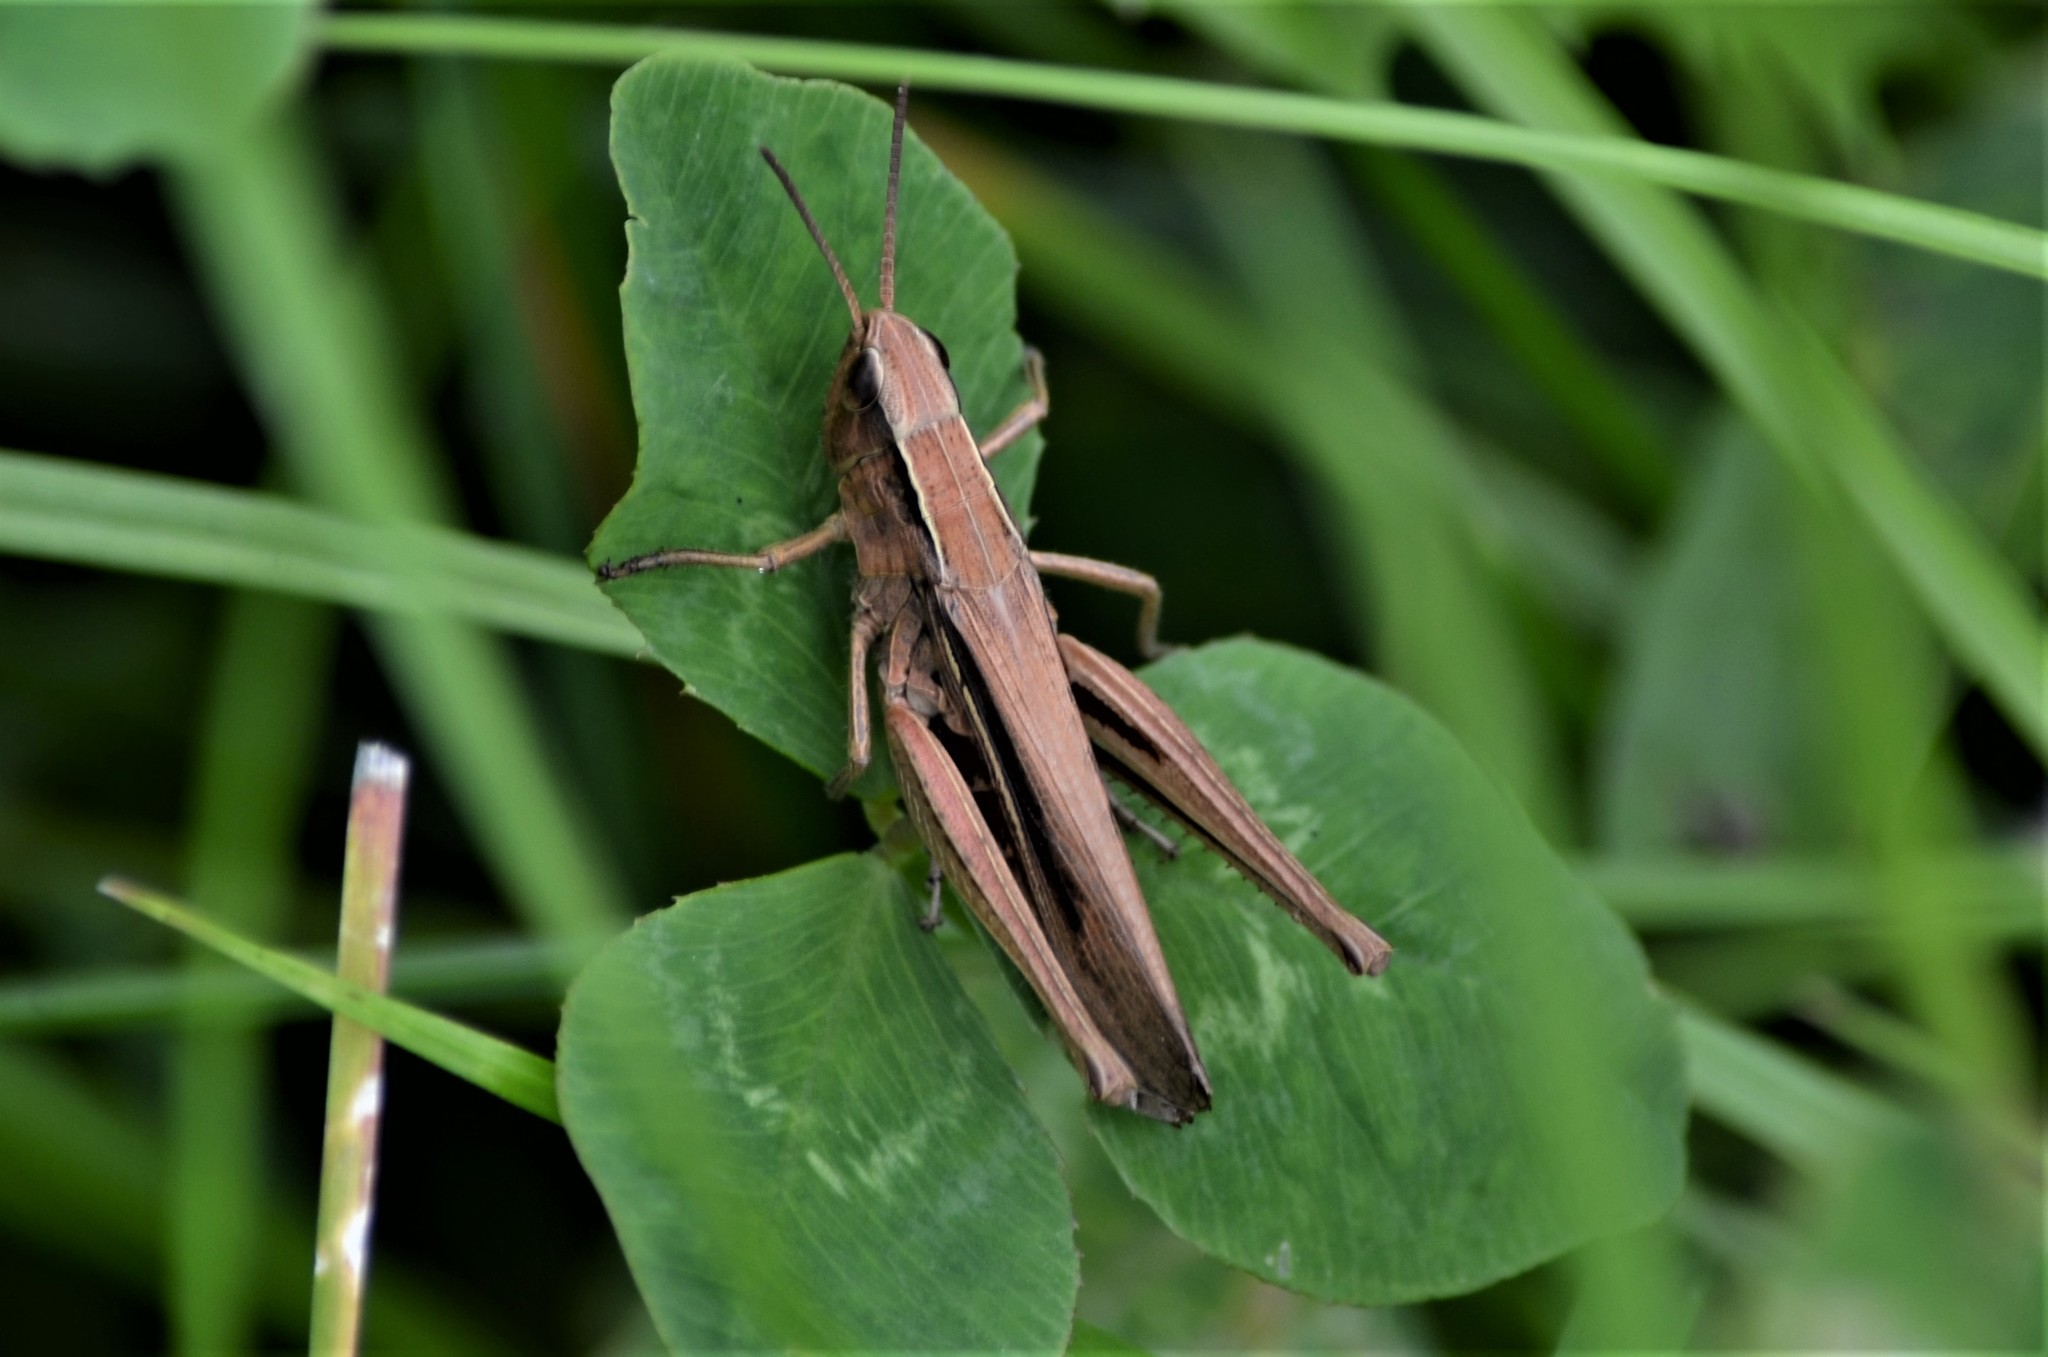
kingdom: Animalia
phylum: Arthropoda
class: Insecta
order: Orthoptera
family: Acrididae
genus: Chorthippus
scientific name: Chorthippus albomarginatus
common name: Lesser marsh grasshopper
